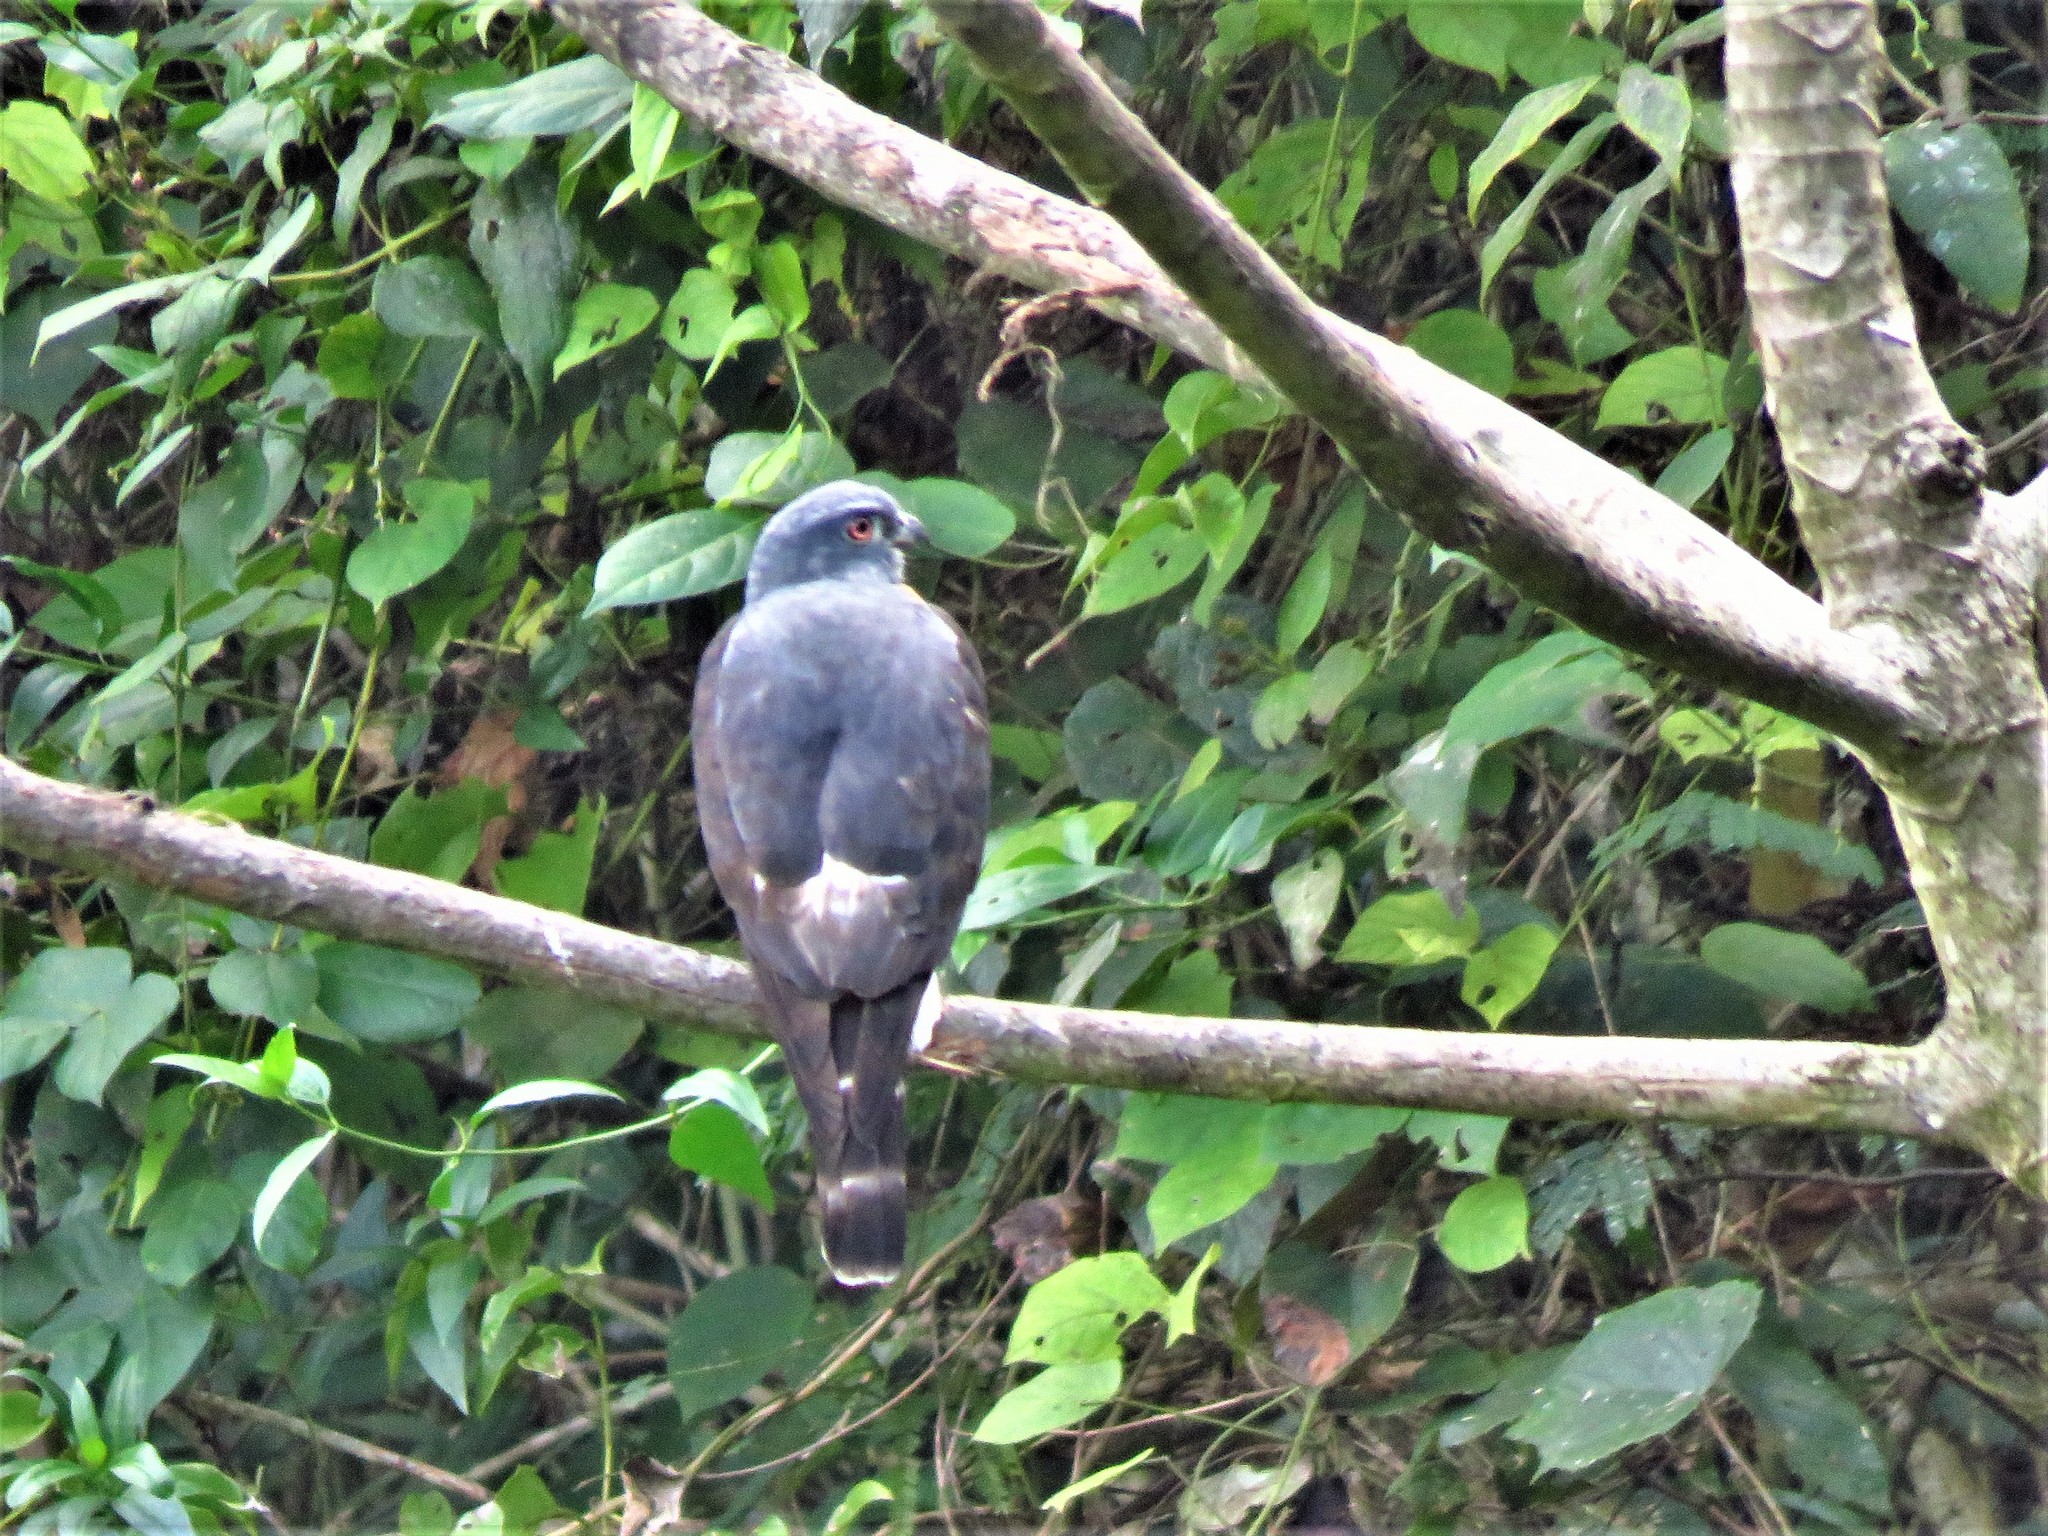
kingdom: Animalia
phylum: Chordata
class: Aves
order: Accipitriformes
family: Accipitridae
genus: Harpagus
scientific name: Harpagus bidentatus
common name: Double-toothed kite
